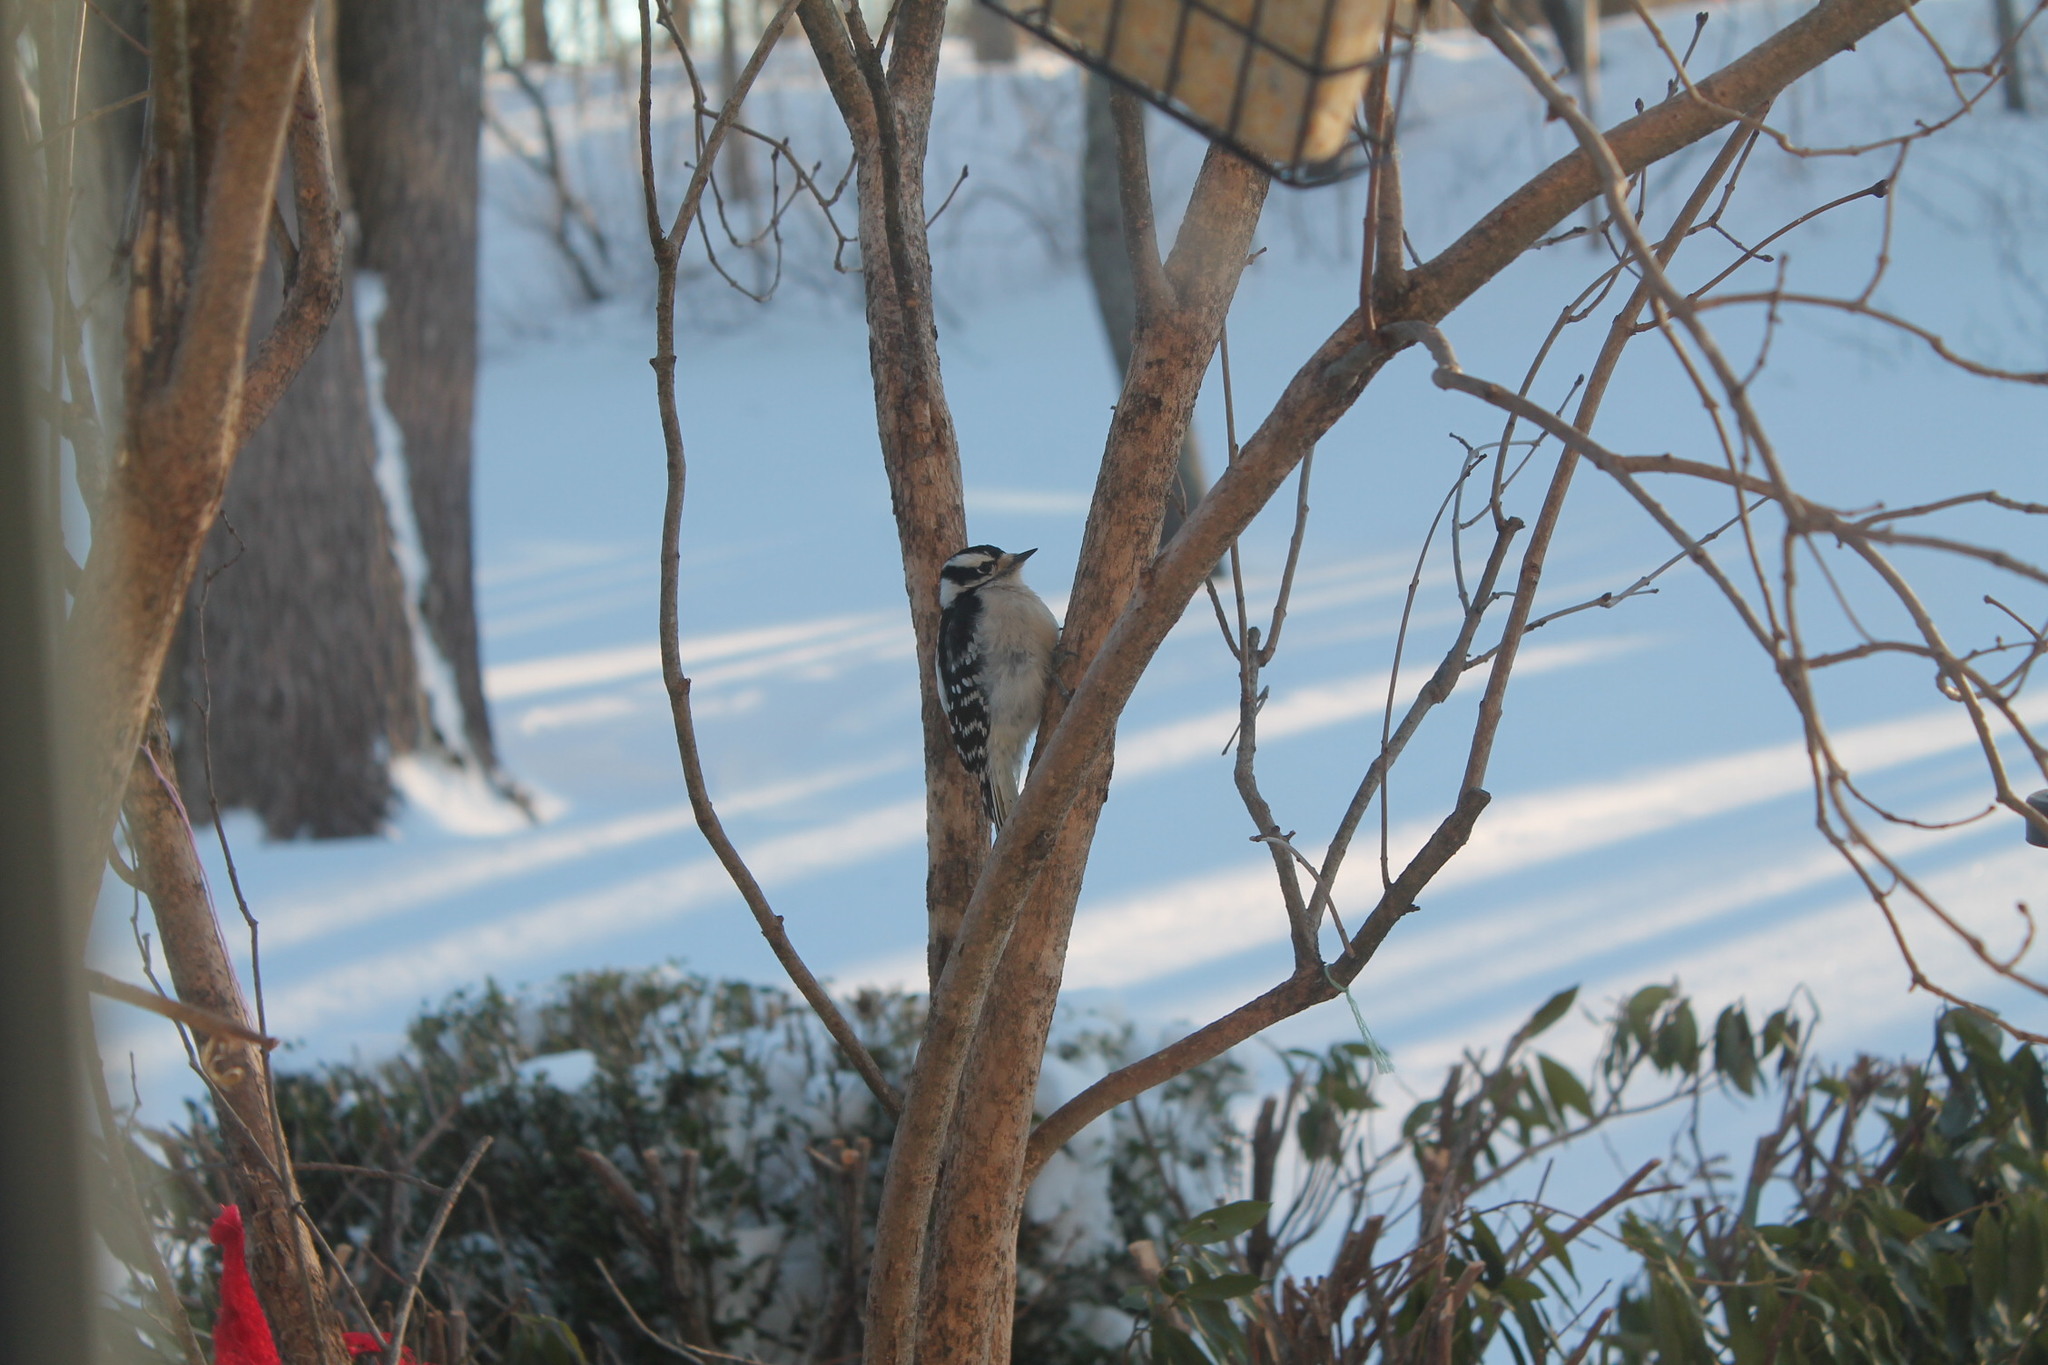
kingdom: Animalia
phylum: Chordata
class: Aves
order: Piciformes
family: Picidae
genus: Dryobates
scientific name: Dryobates pubescens
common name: Downy woodpecker
